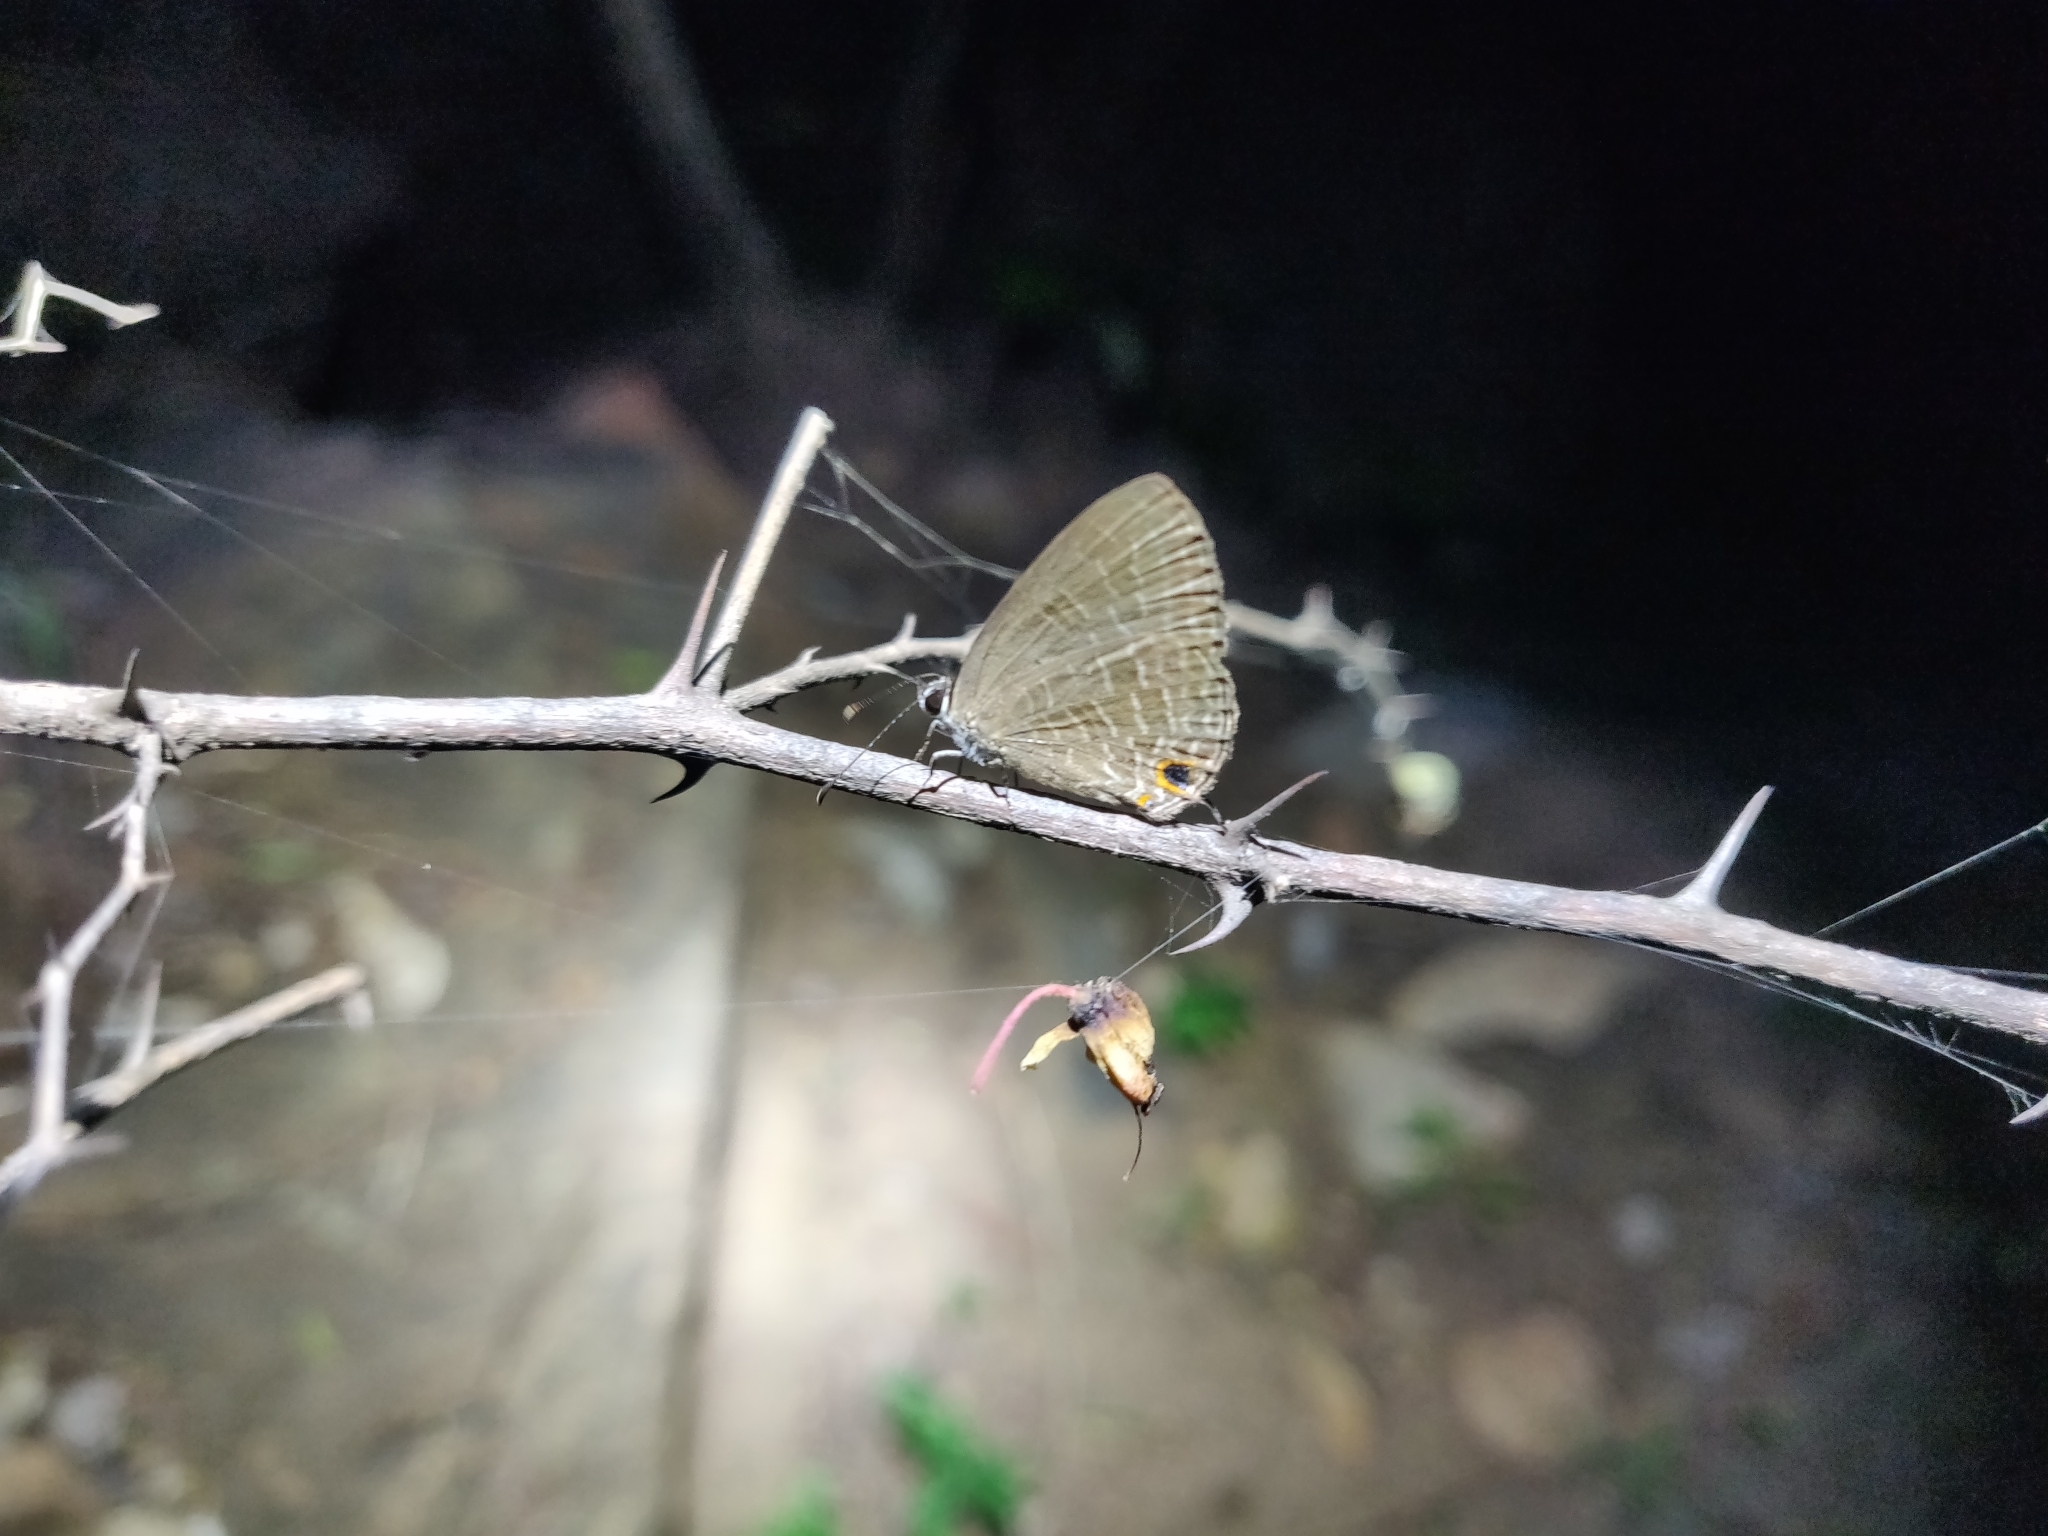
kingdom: Animalia
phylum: Arthropoda
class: Insecta
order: Lepidoptera
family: Lycaenidae
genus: Jamides
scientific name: Jamides bochus
